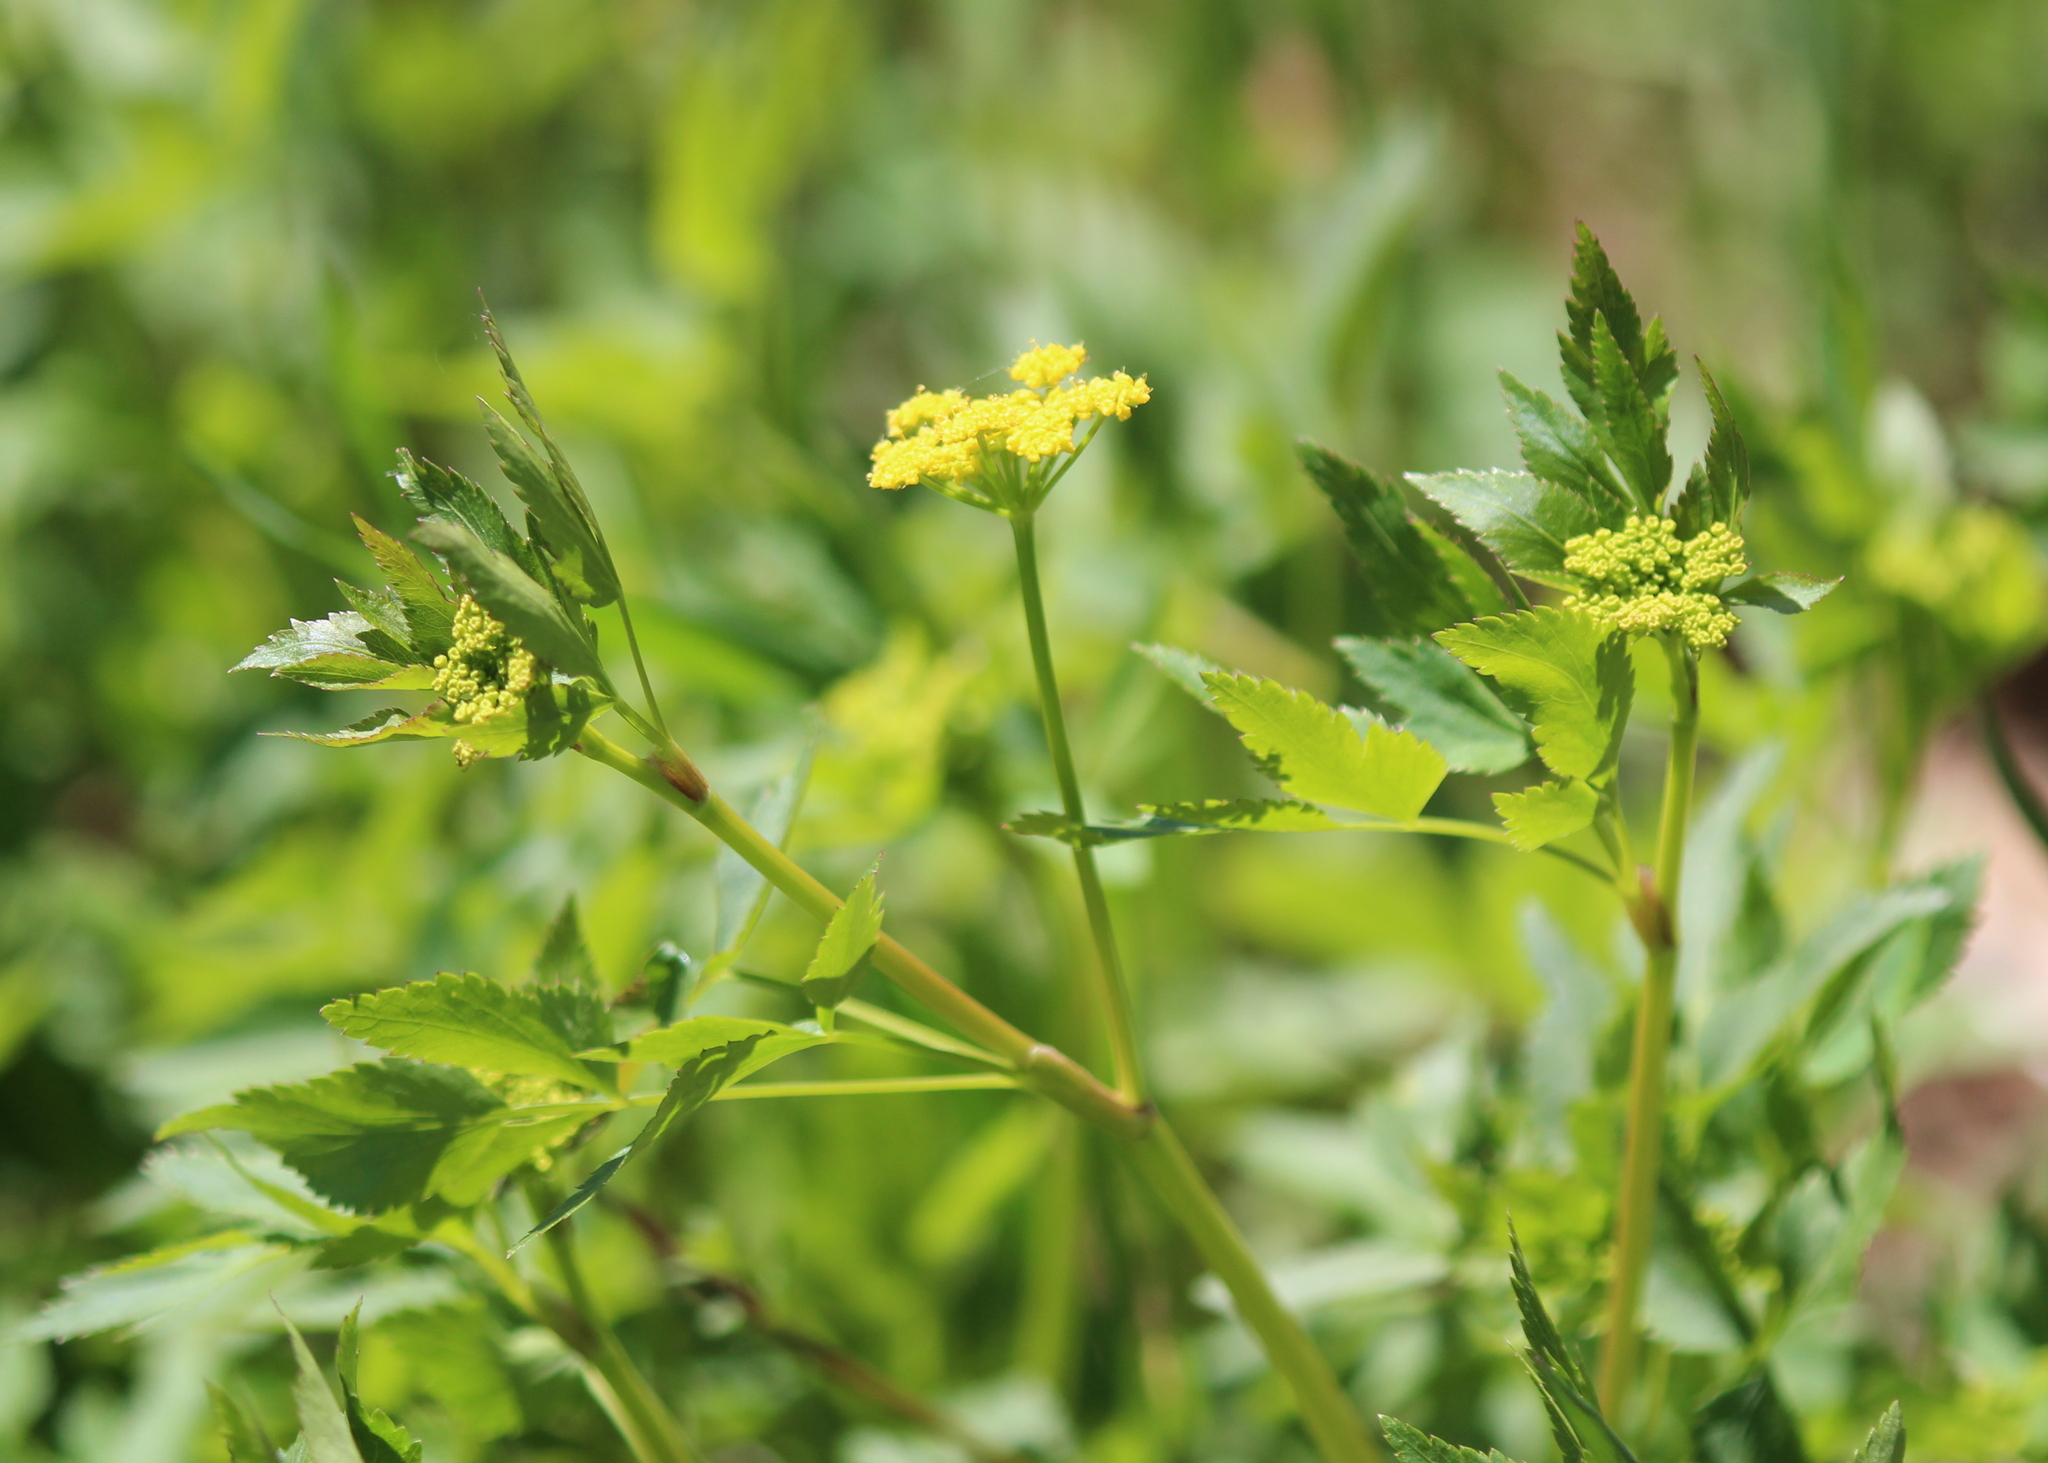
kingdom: Plantae
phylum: Tracheophyta
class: Magnoliopsida
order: Apiales
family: Apiaceae
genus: Zizia
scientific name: Zizia aurea
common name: Golden alexanders
